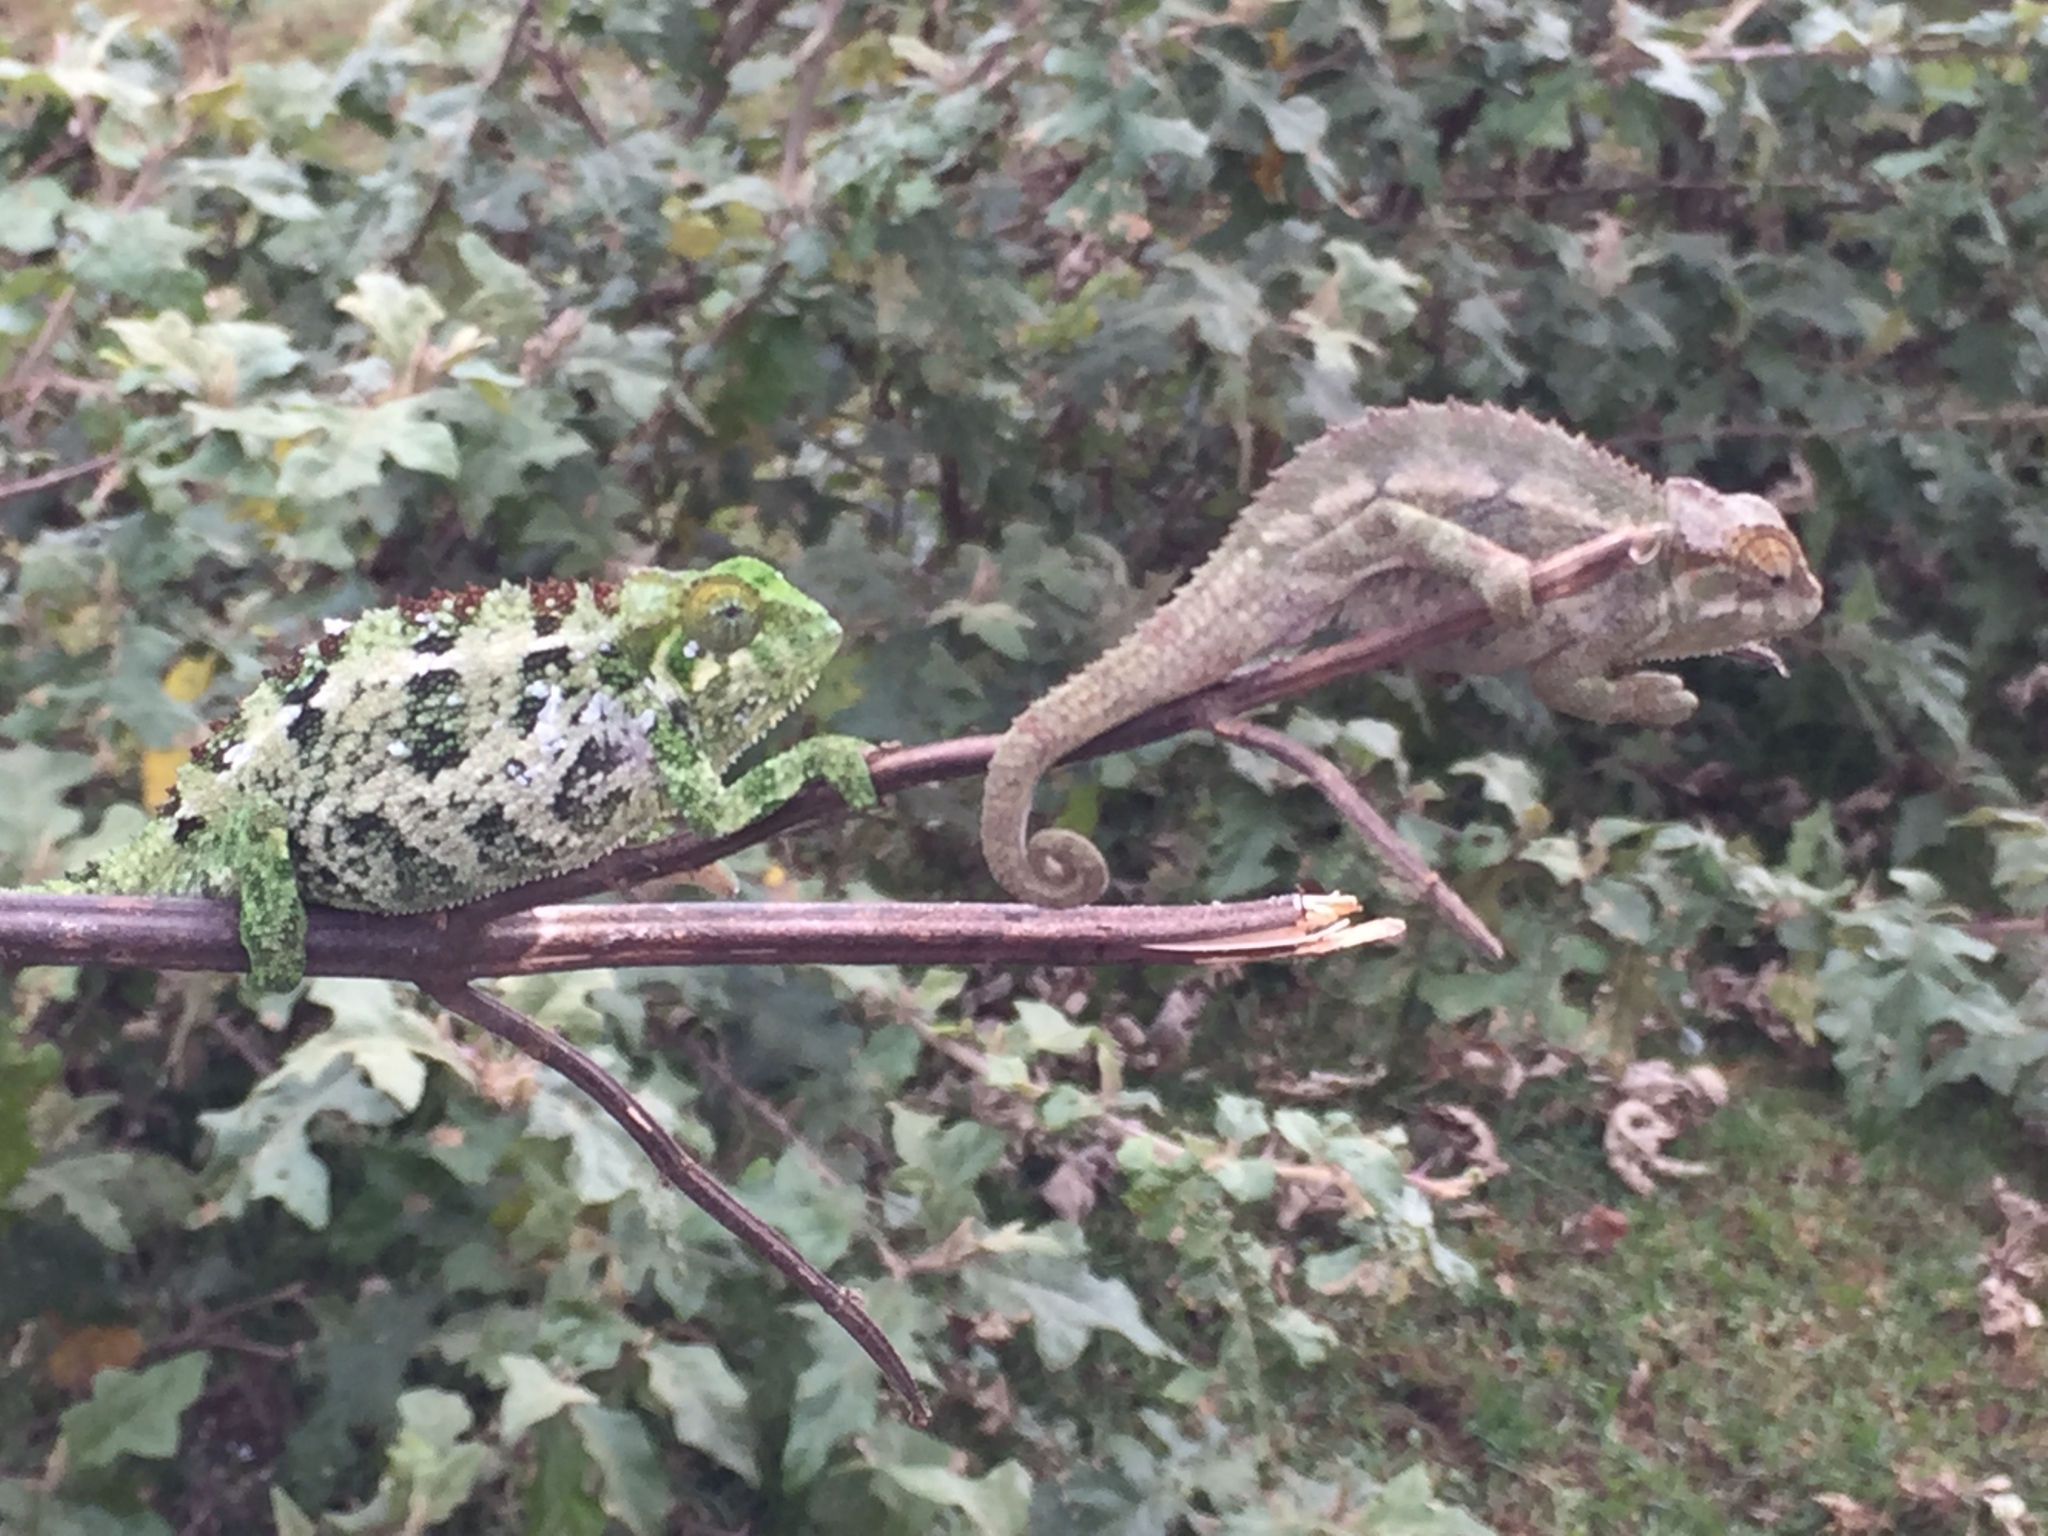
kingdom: Animalia
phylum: Chordata
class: Squamata
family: Chamaeleonidae
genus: Trioceros
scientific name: Trioceros rudis
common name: Coarse chameleon
